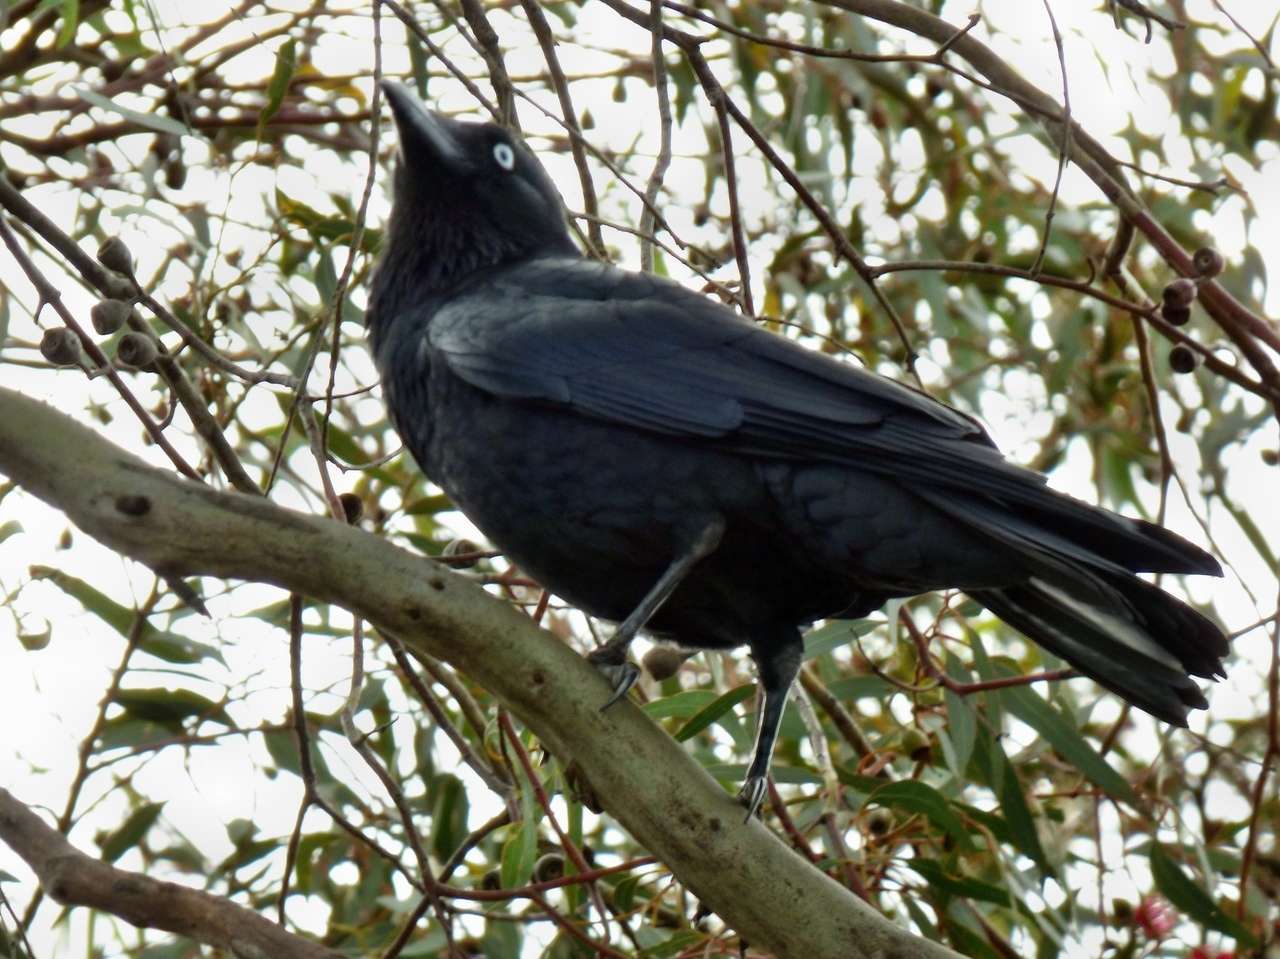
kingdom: Animalia
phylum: Chordata
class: Aves
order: Passeriformes
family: Corvidae
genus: Corvus
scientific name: Corvus mellori
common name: Little raven
